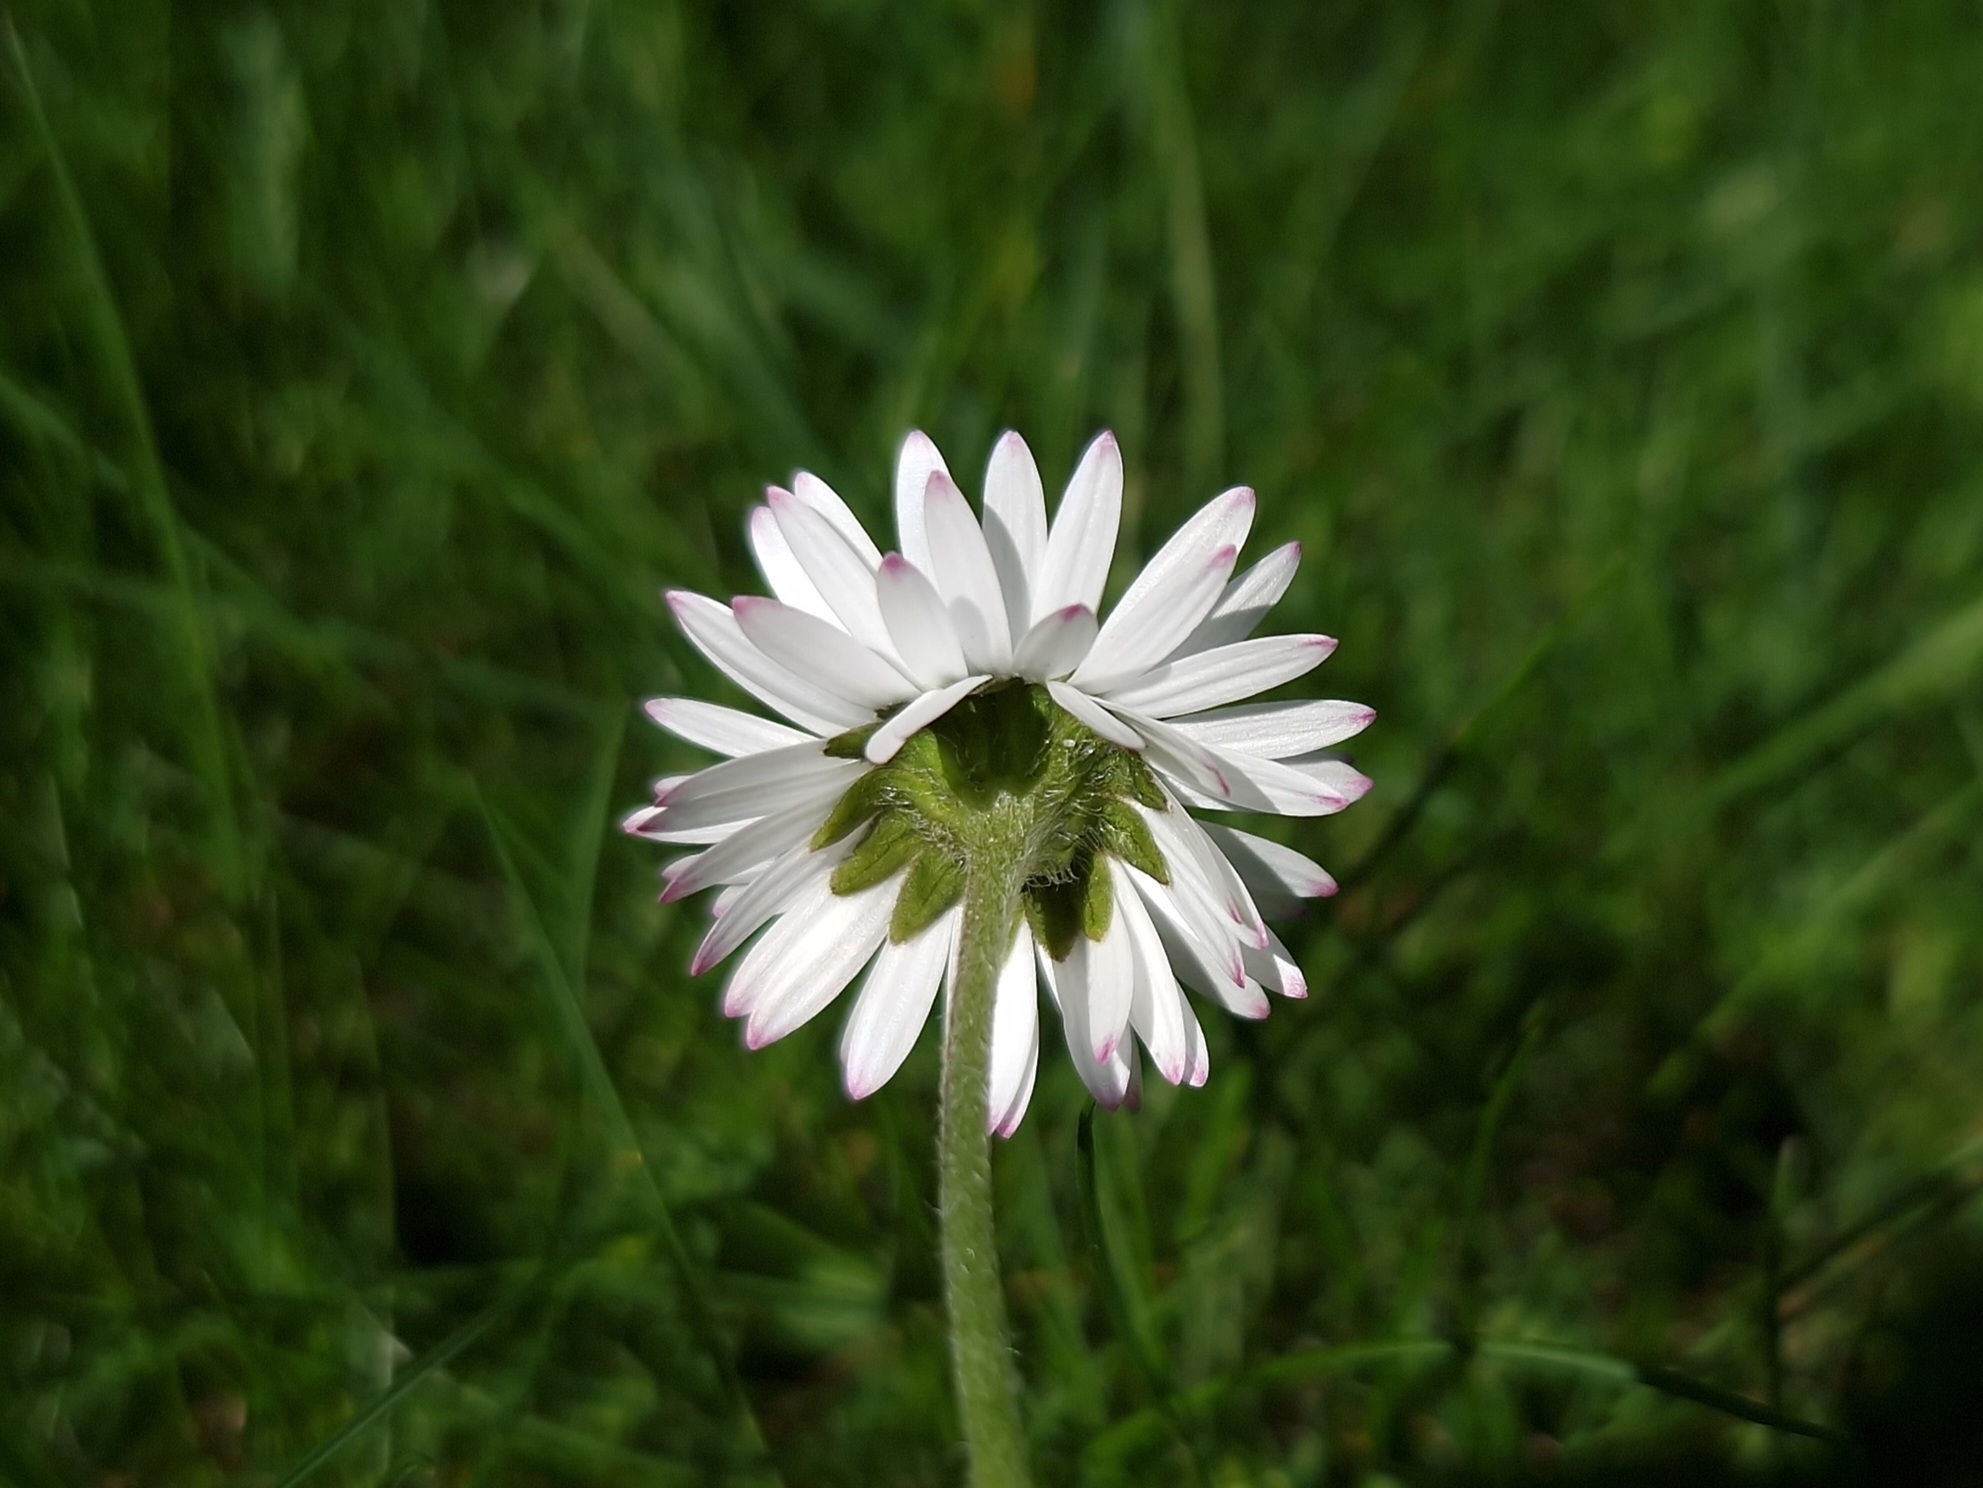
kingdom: Plantae
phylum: Tracheophyta
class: Magnoliopsida
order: Asterales
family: Asteraceae
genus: Bellis
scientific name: Bellis perennis
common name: Lawndaisy
